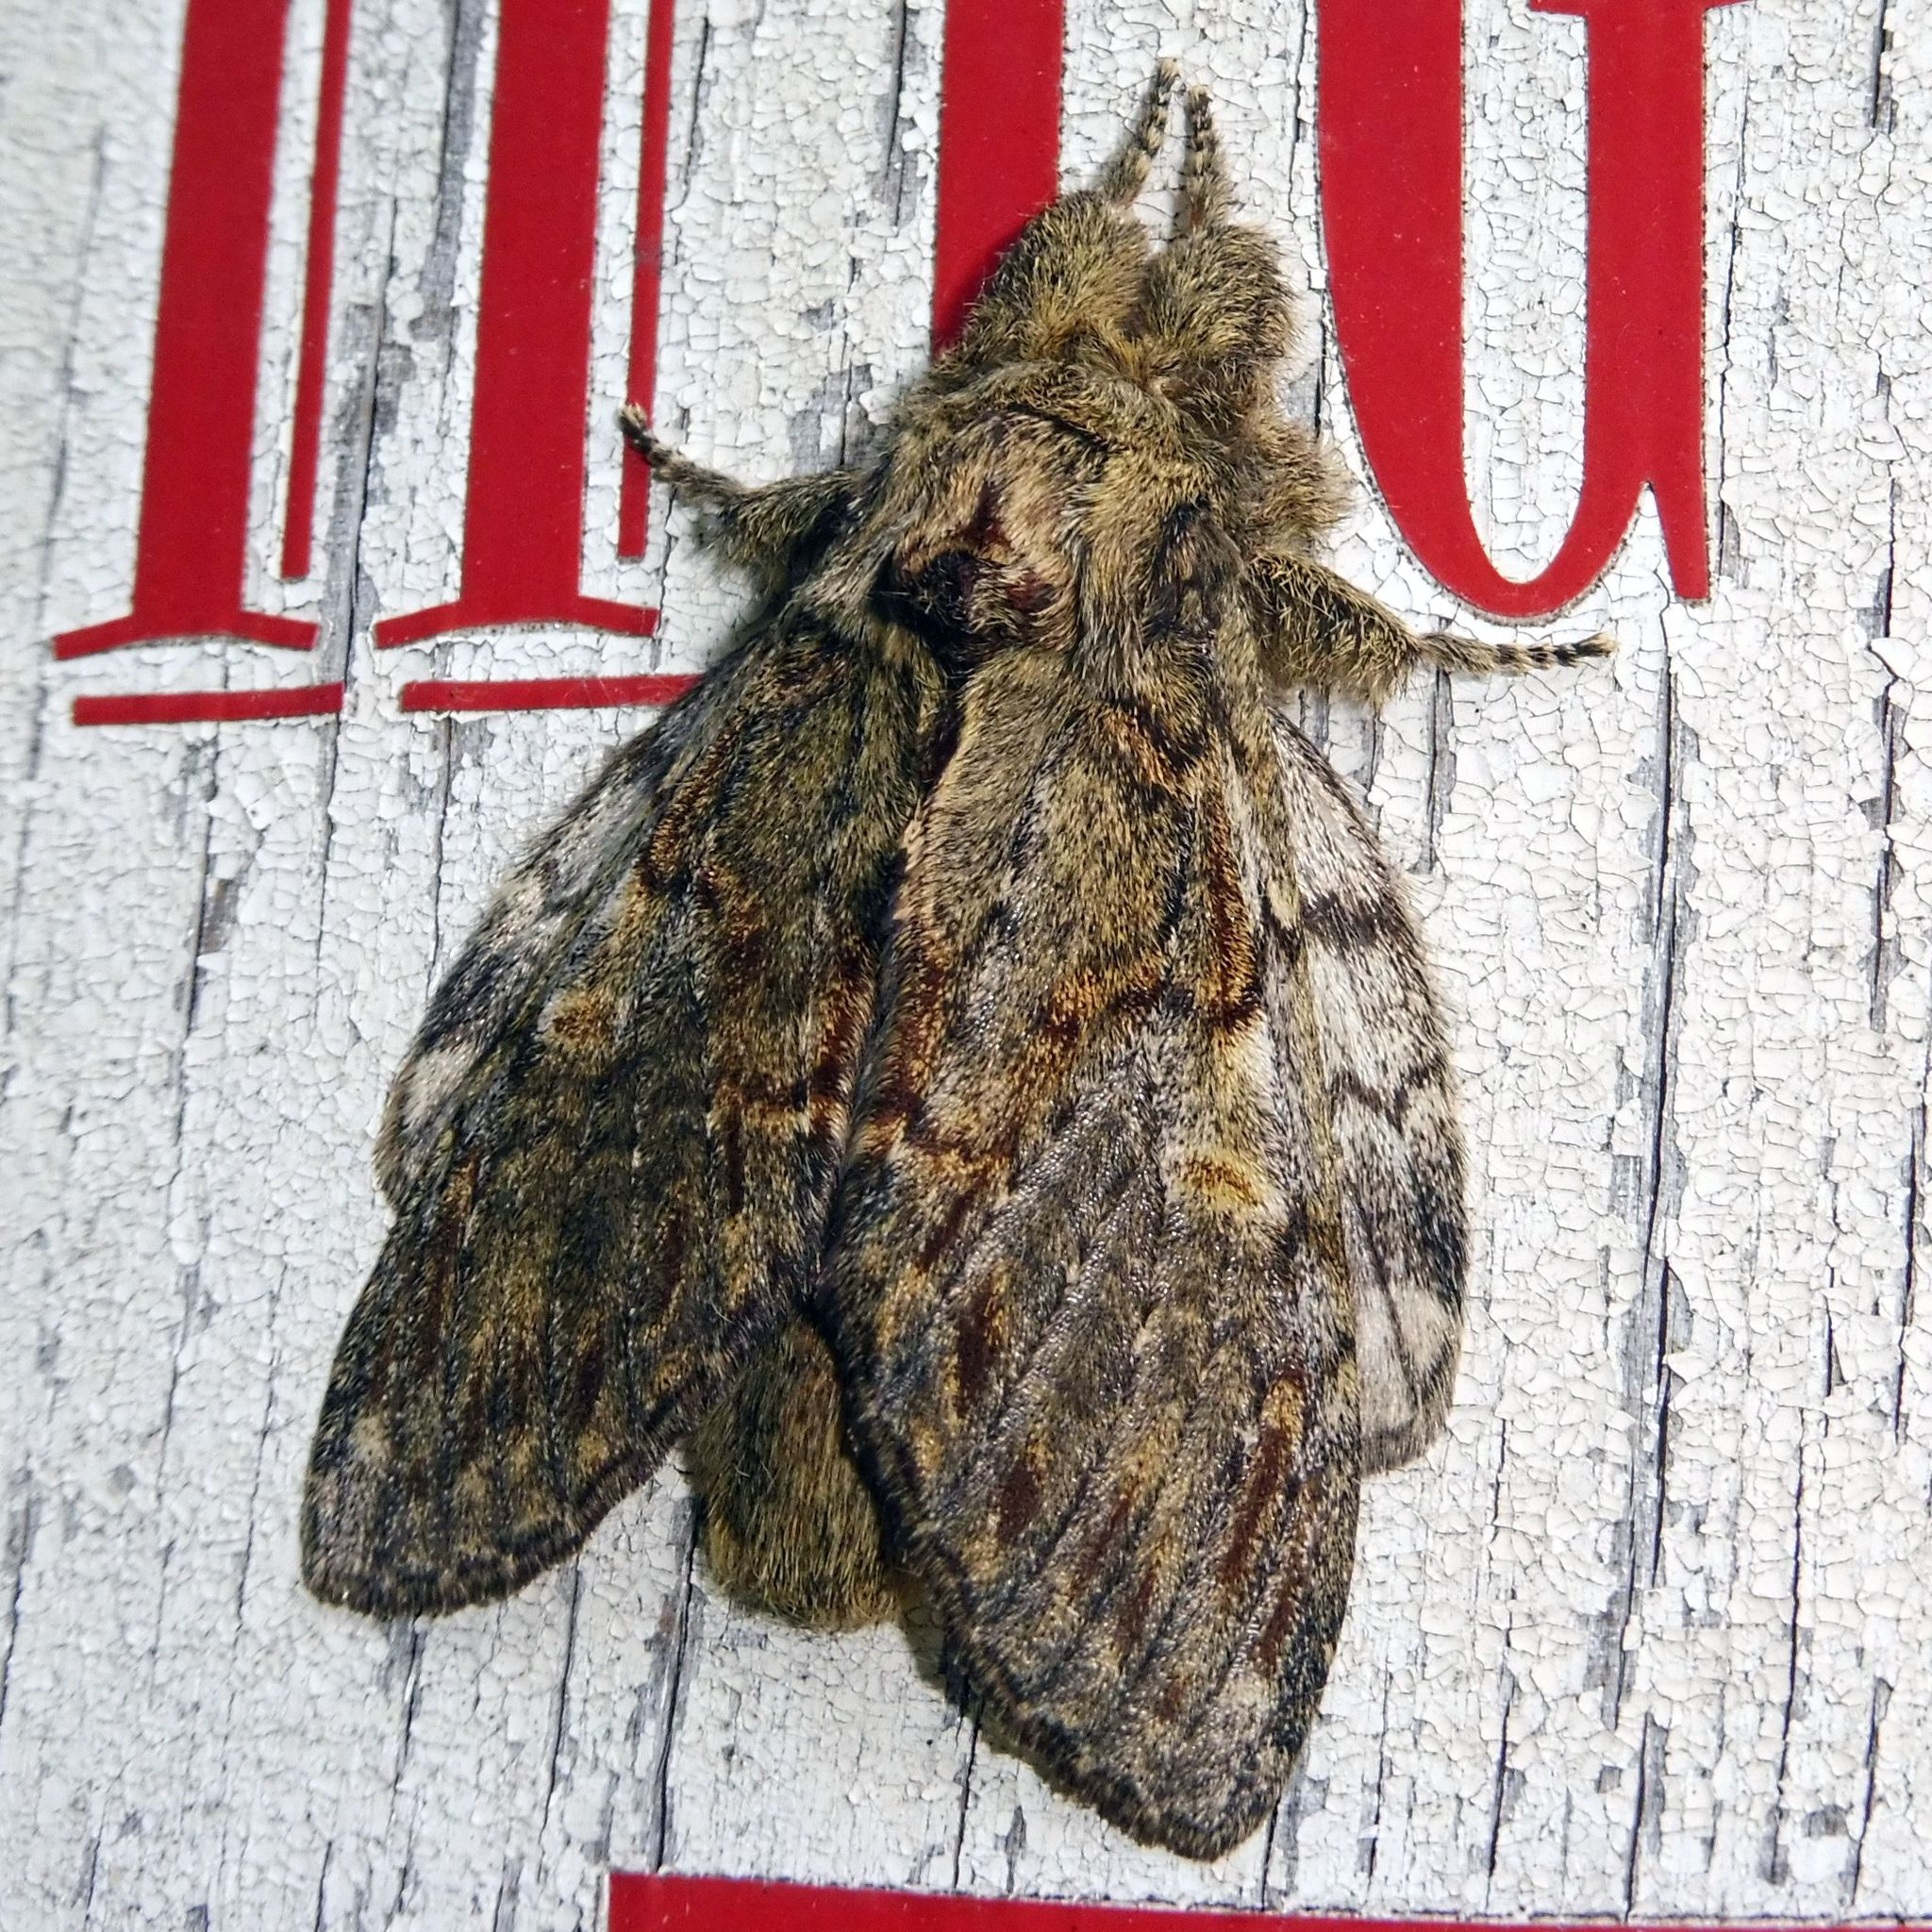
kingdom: Animalia
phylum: Arthropoda
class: Insecta
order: Lepidoptera
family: Notodontidae
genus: Peridea
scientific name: Peridea anceps
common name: Great prominent
